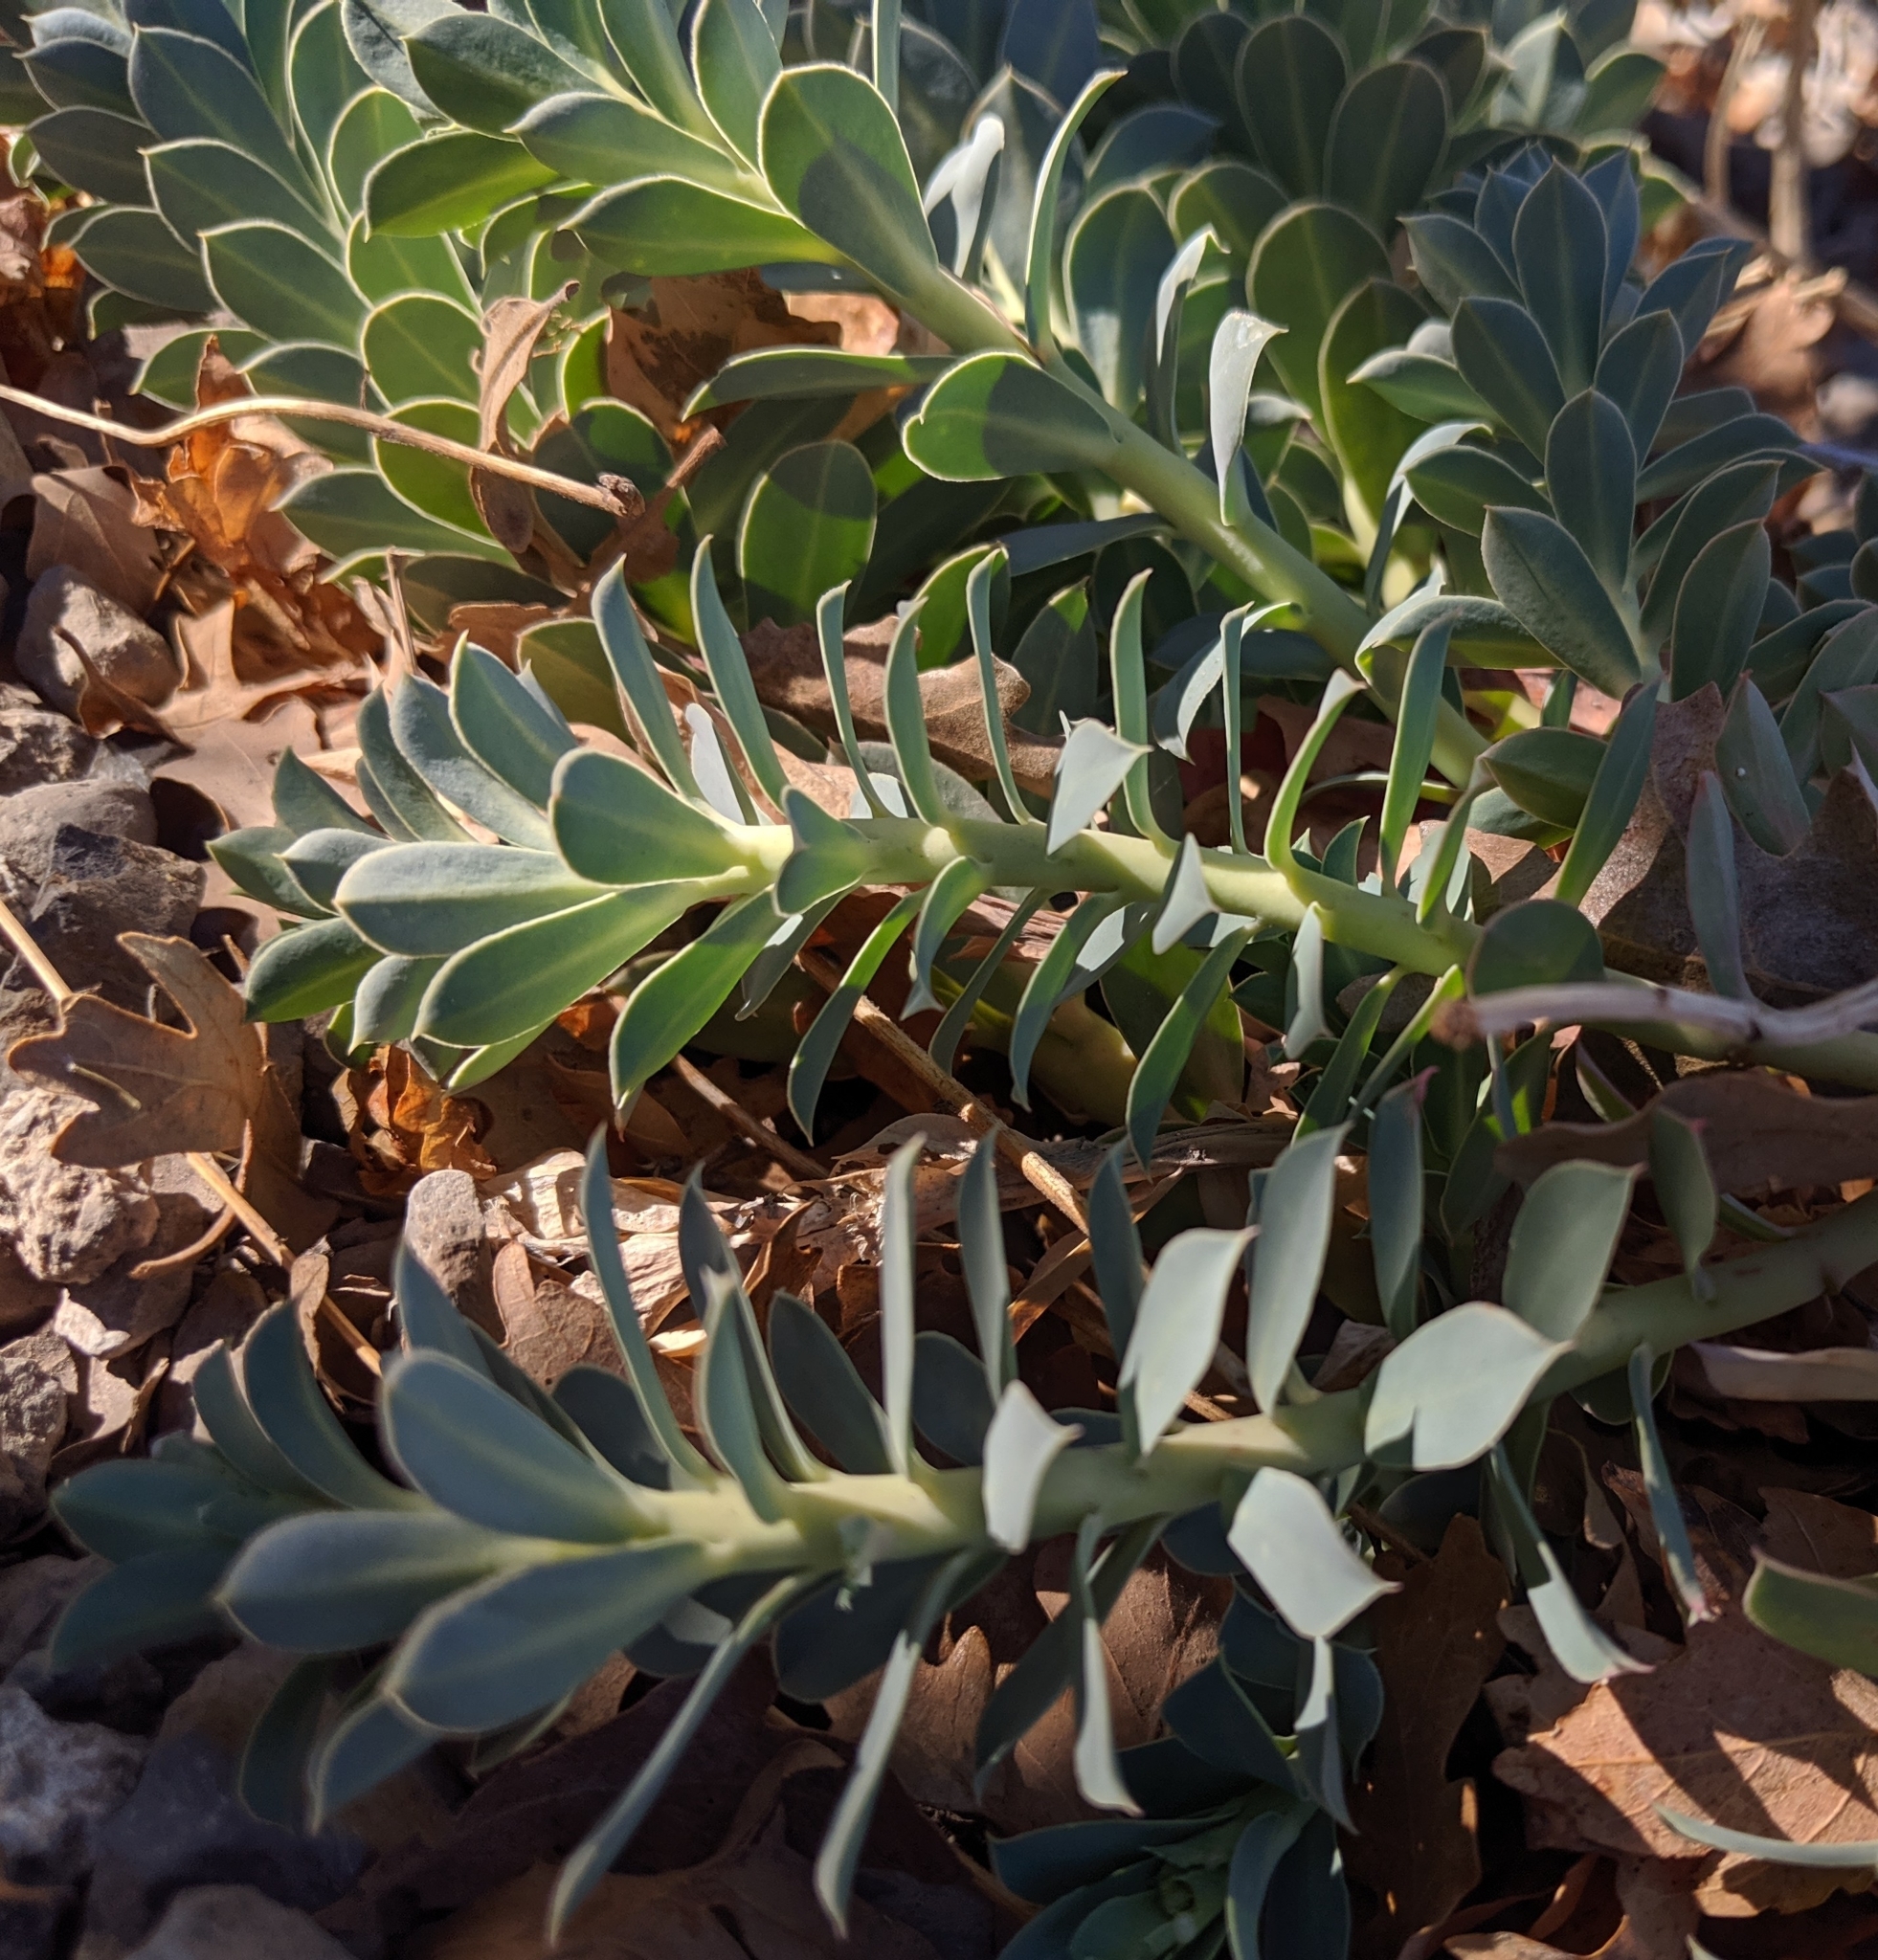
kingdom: Plantae
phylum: Tracheophyta
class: Magnoliopsida
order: Malpighiales
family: Euphorbiaceae
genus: Euphorbia
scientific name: Euphorbia myrsinites
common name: Myrtle spurge
